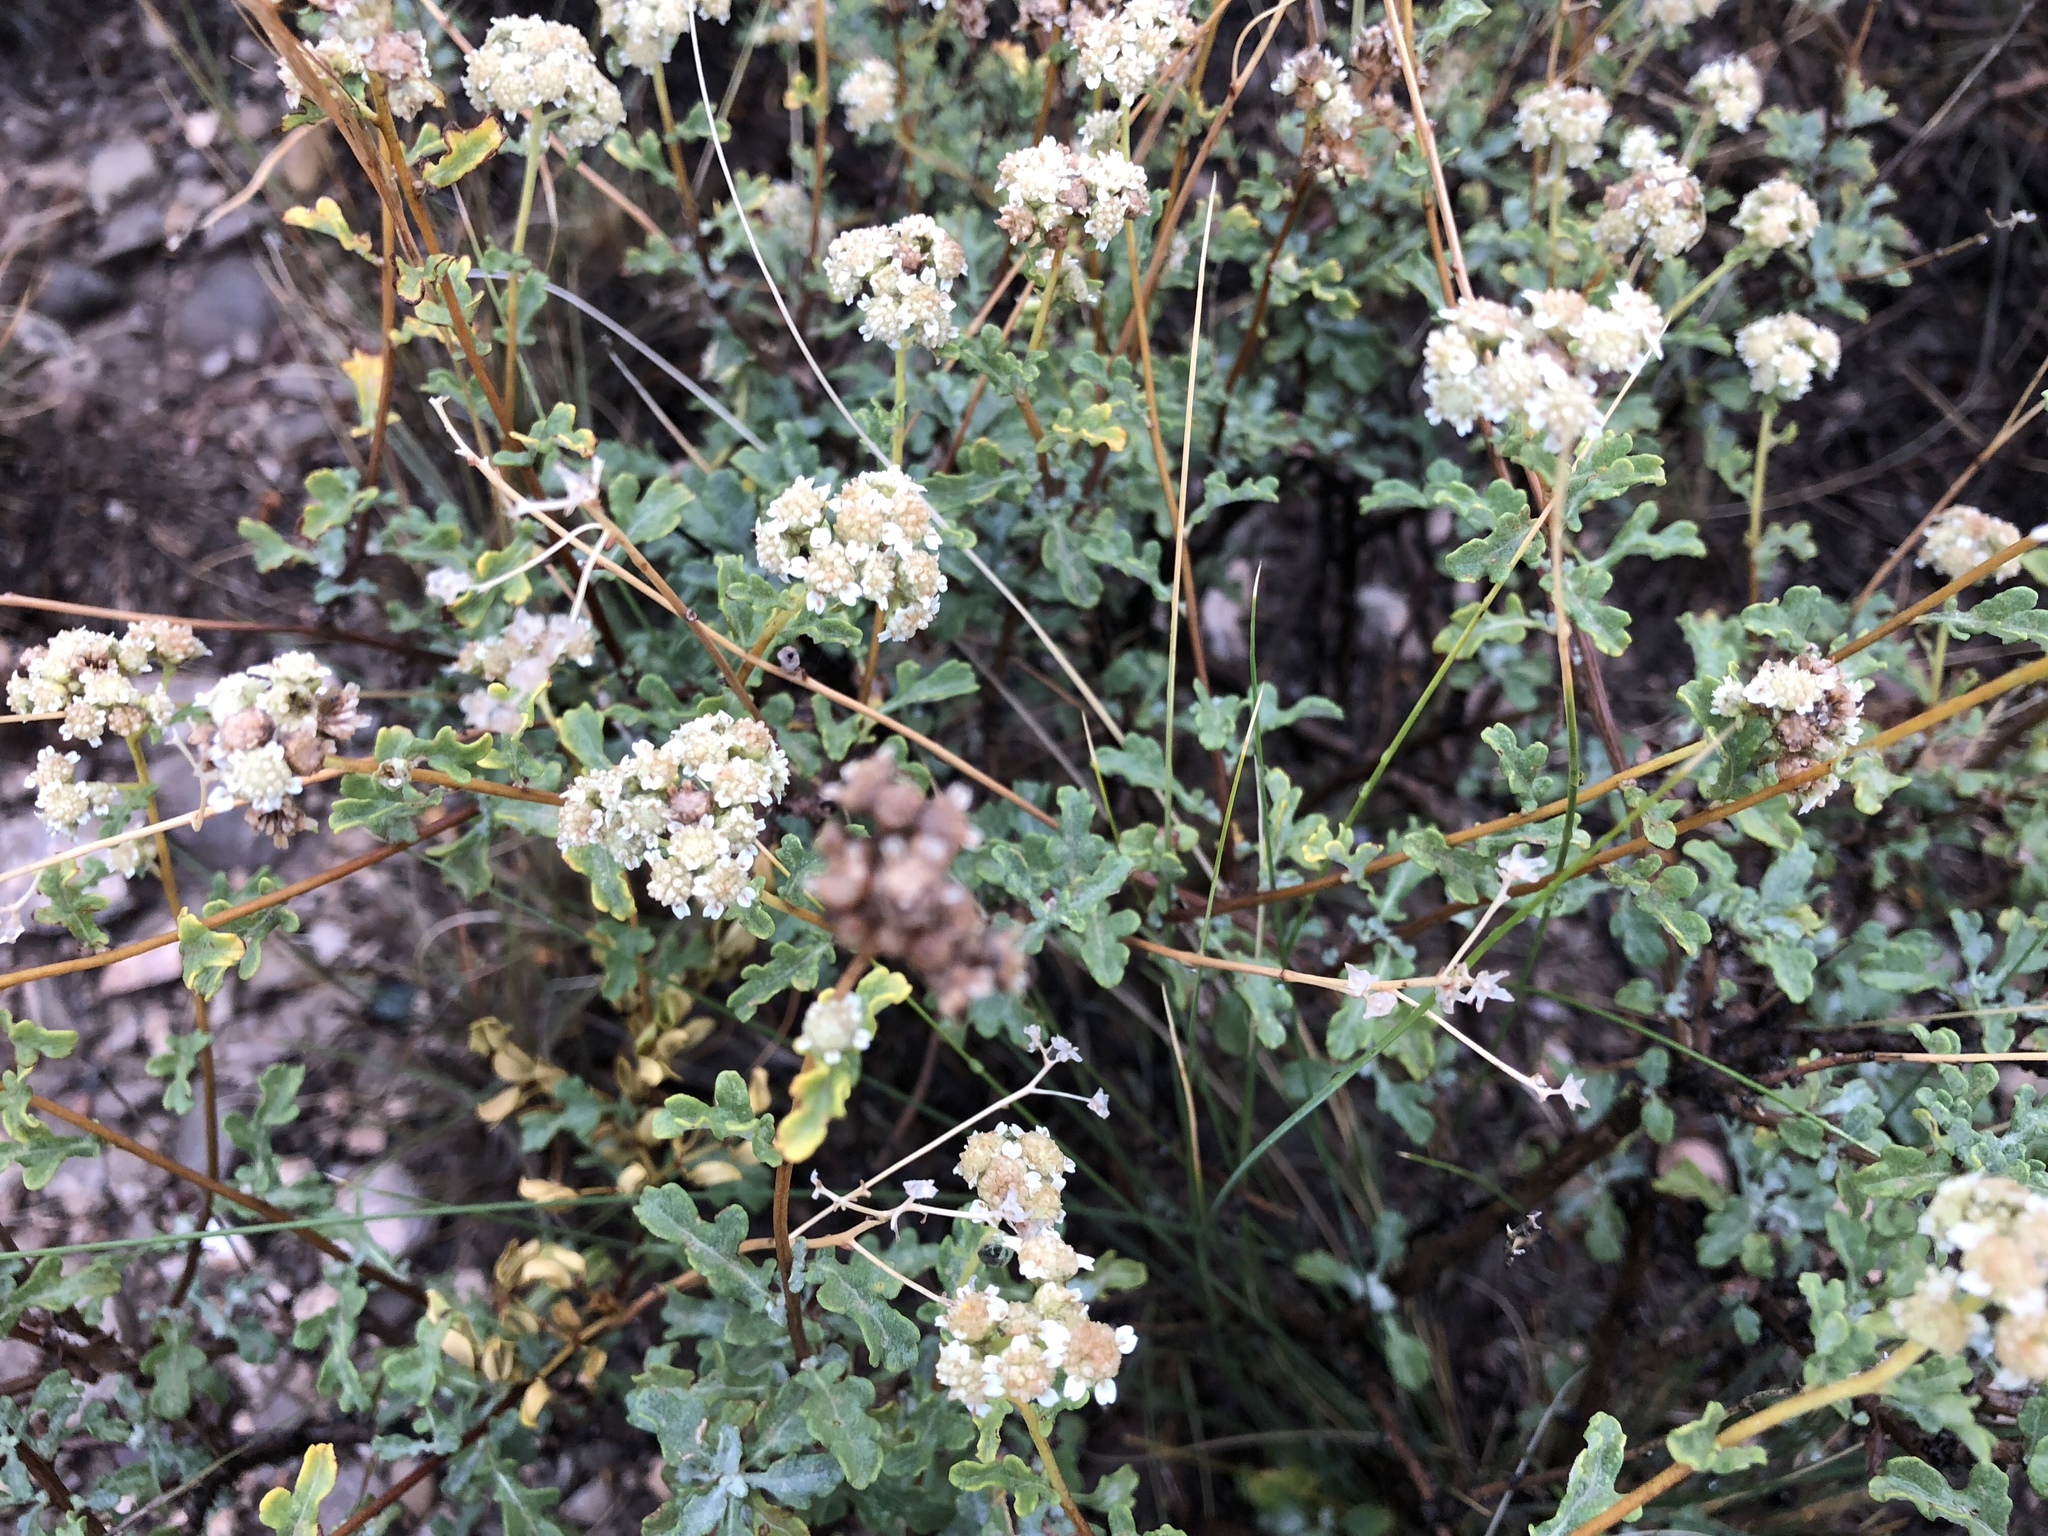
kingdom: Plantae
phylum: Tracheophyta
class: Magnoliopsida
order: Asterales
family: Asteraceae
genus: Parthenium
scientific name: Parthenium incanum
